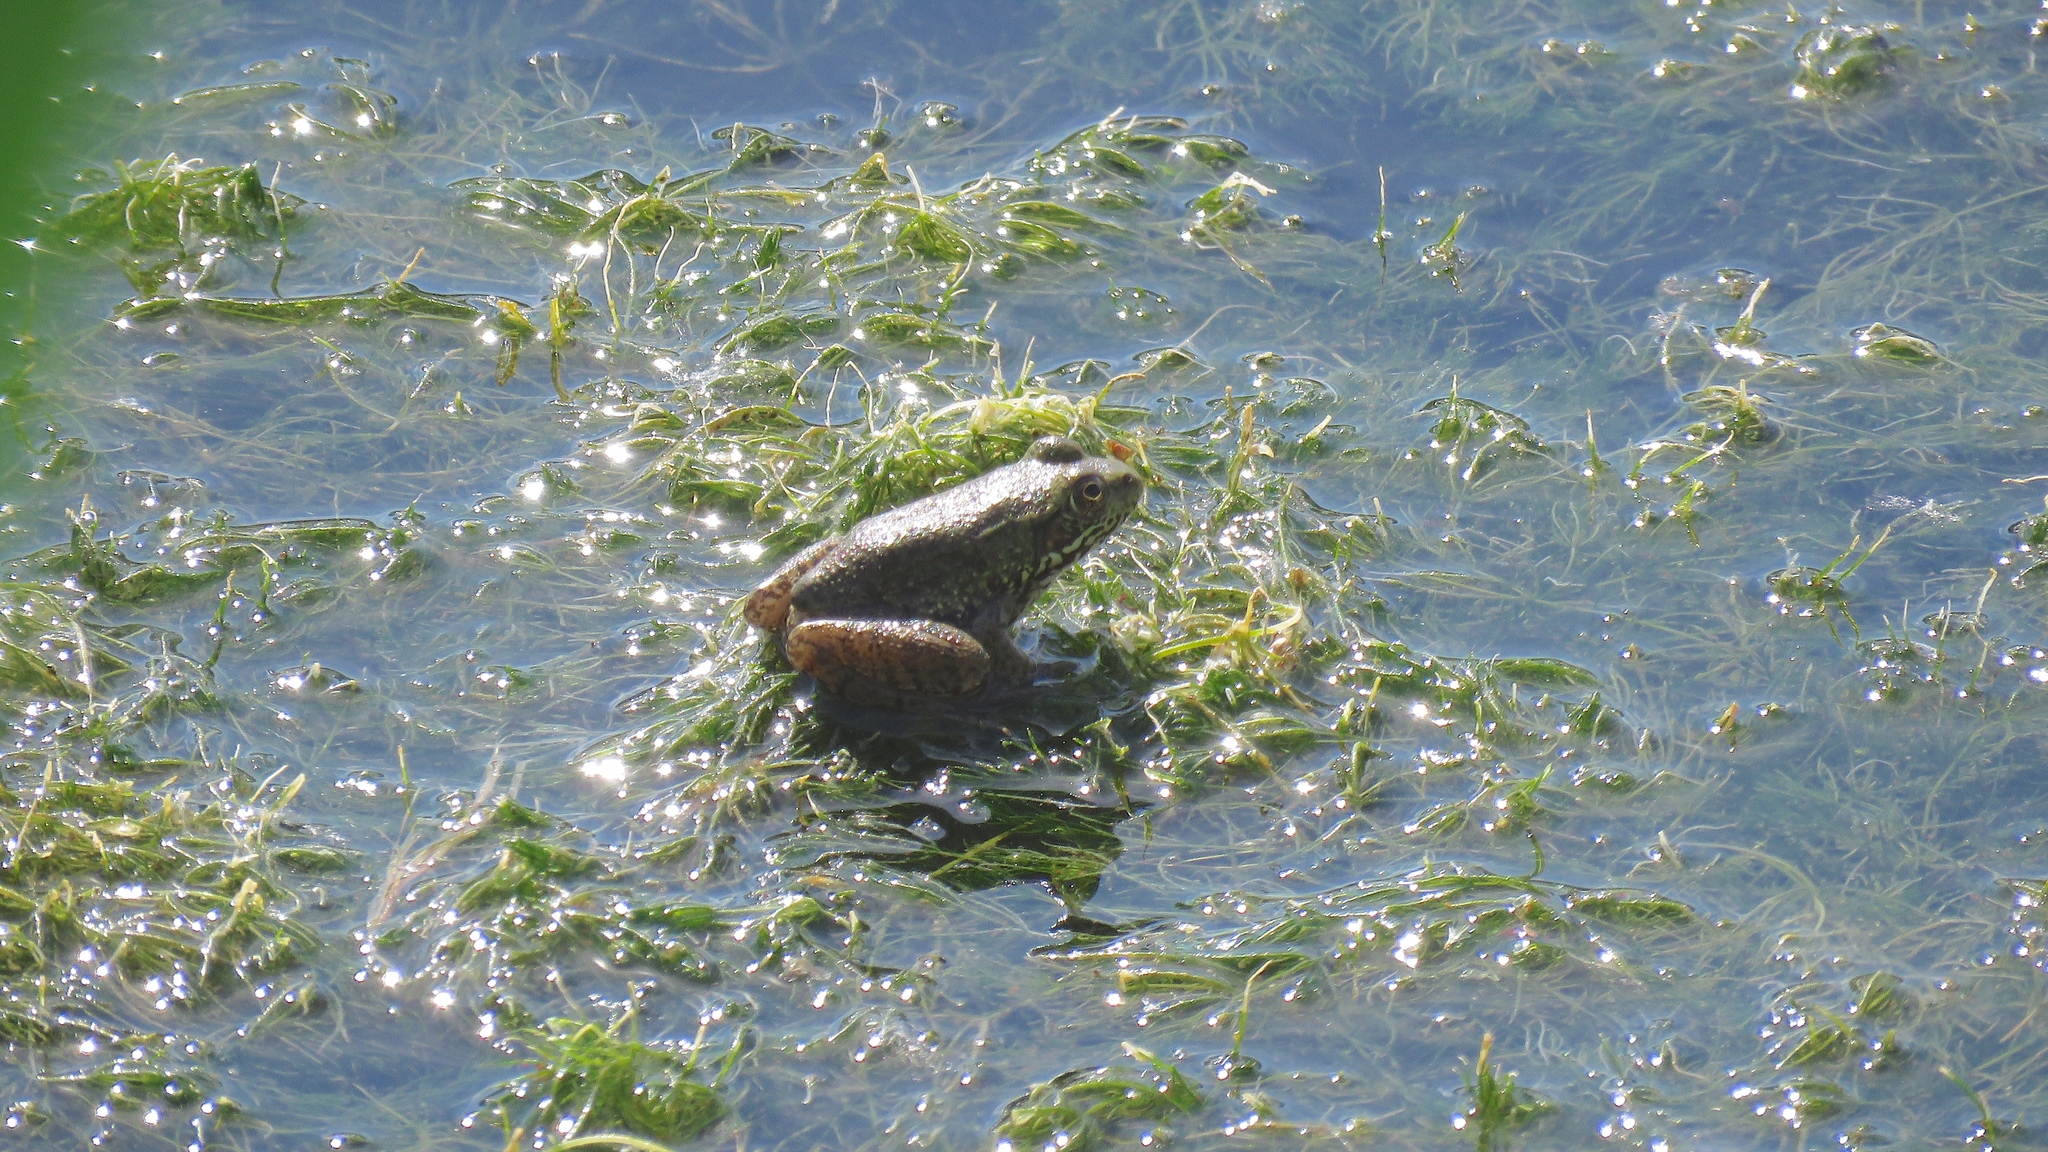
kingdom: Animalia
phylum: Chordata
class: Amphibia
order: Anura
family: Ranidae
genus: Lithobates
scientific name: Lithobates clamitans
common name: Green frog
